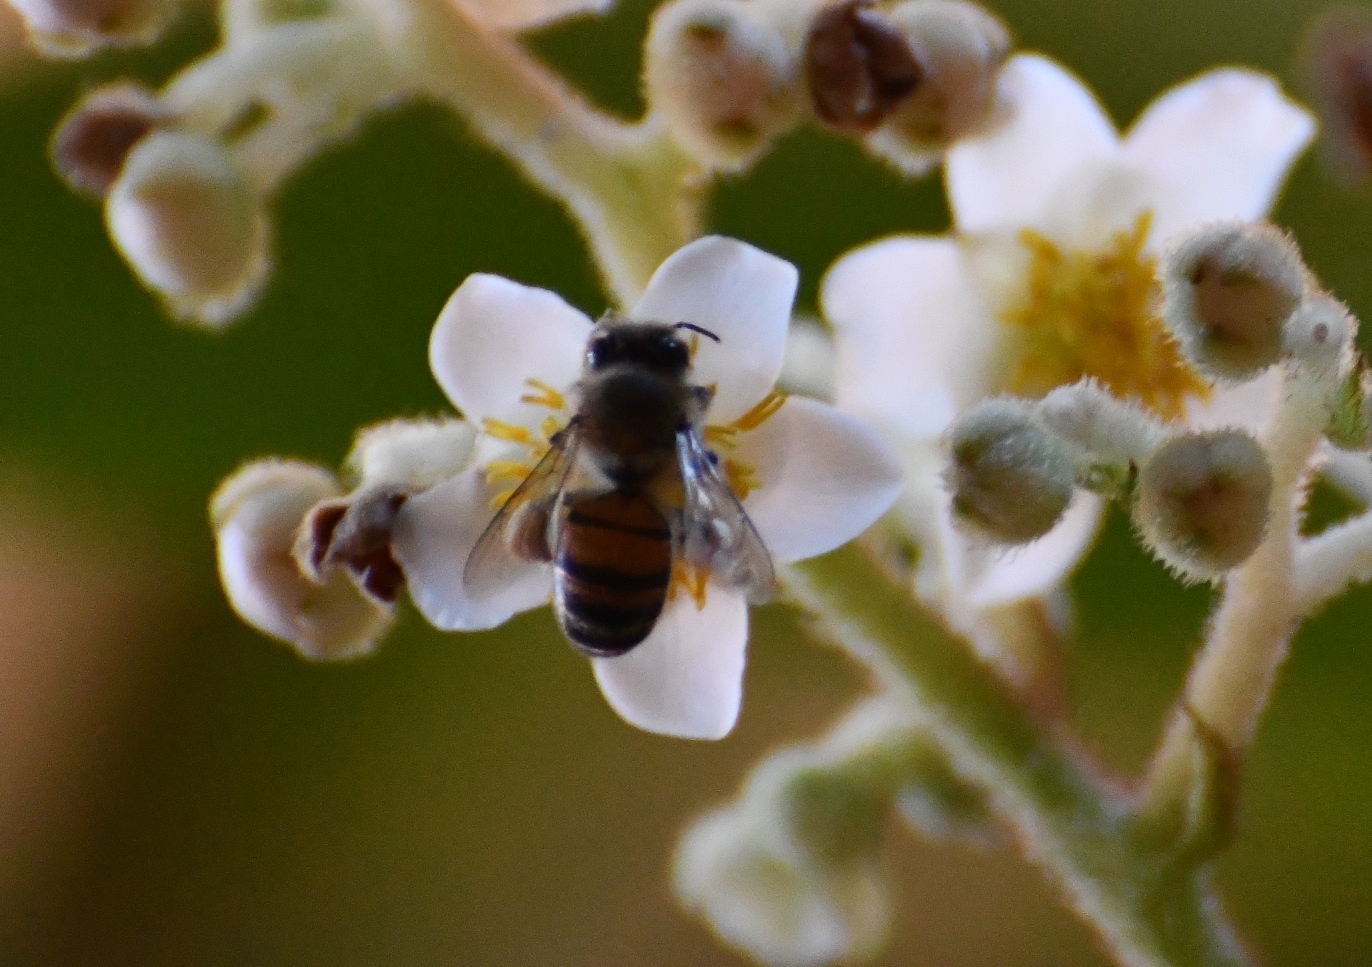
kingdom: Animalia
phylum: Arthropoda
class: Insecta
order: Hymenoptera
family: Apidae
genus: Apis
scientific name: Apis mellifera
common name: Honey bee
